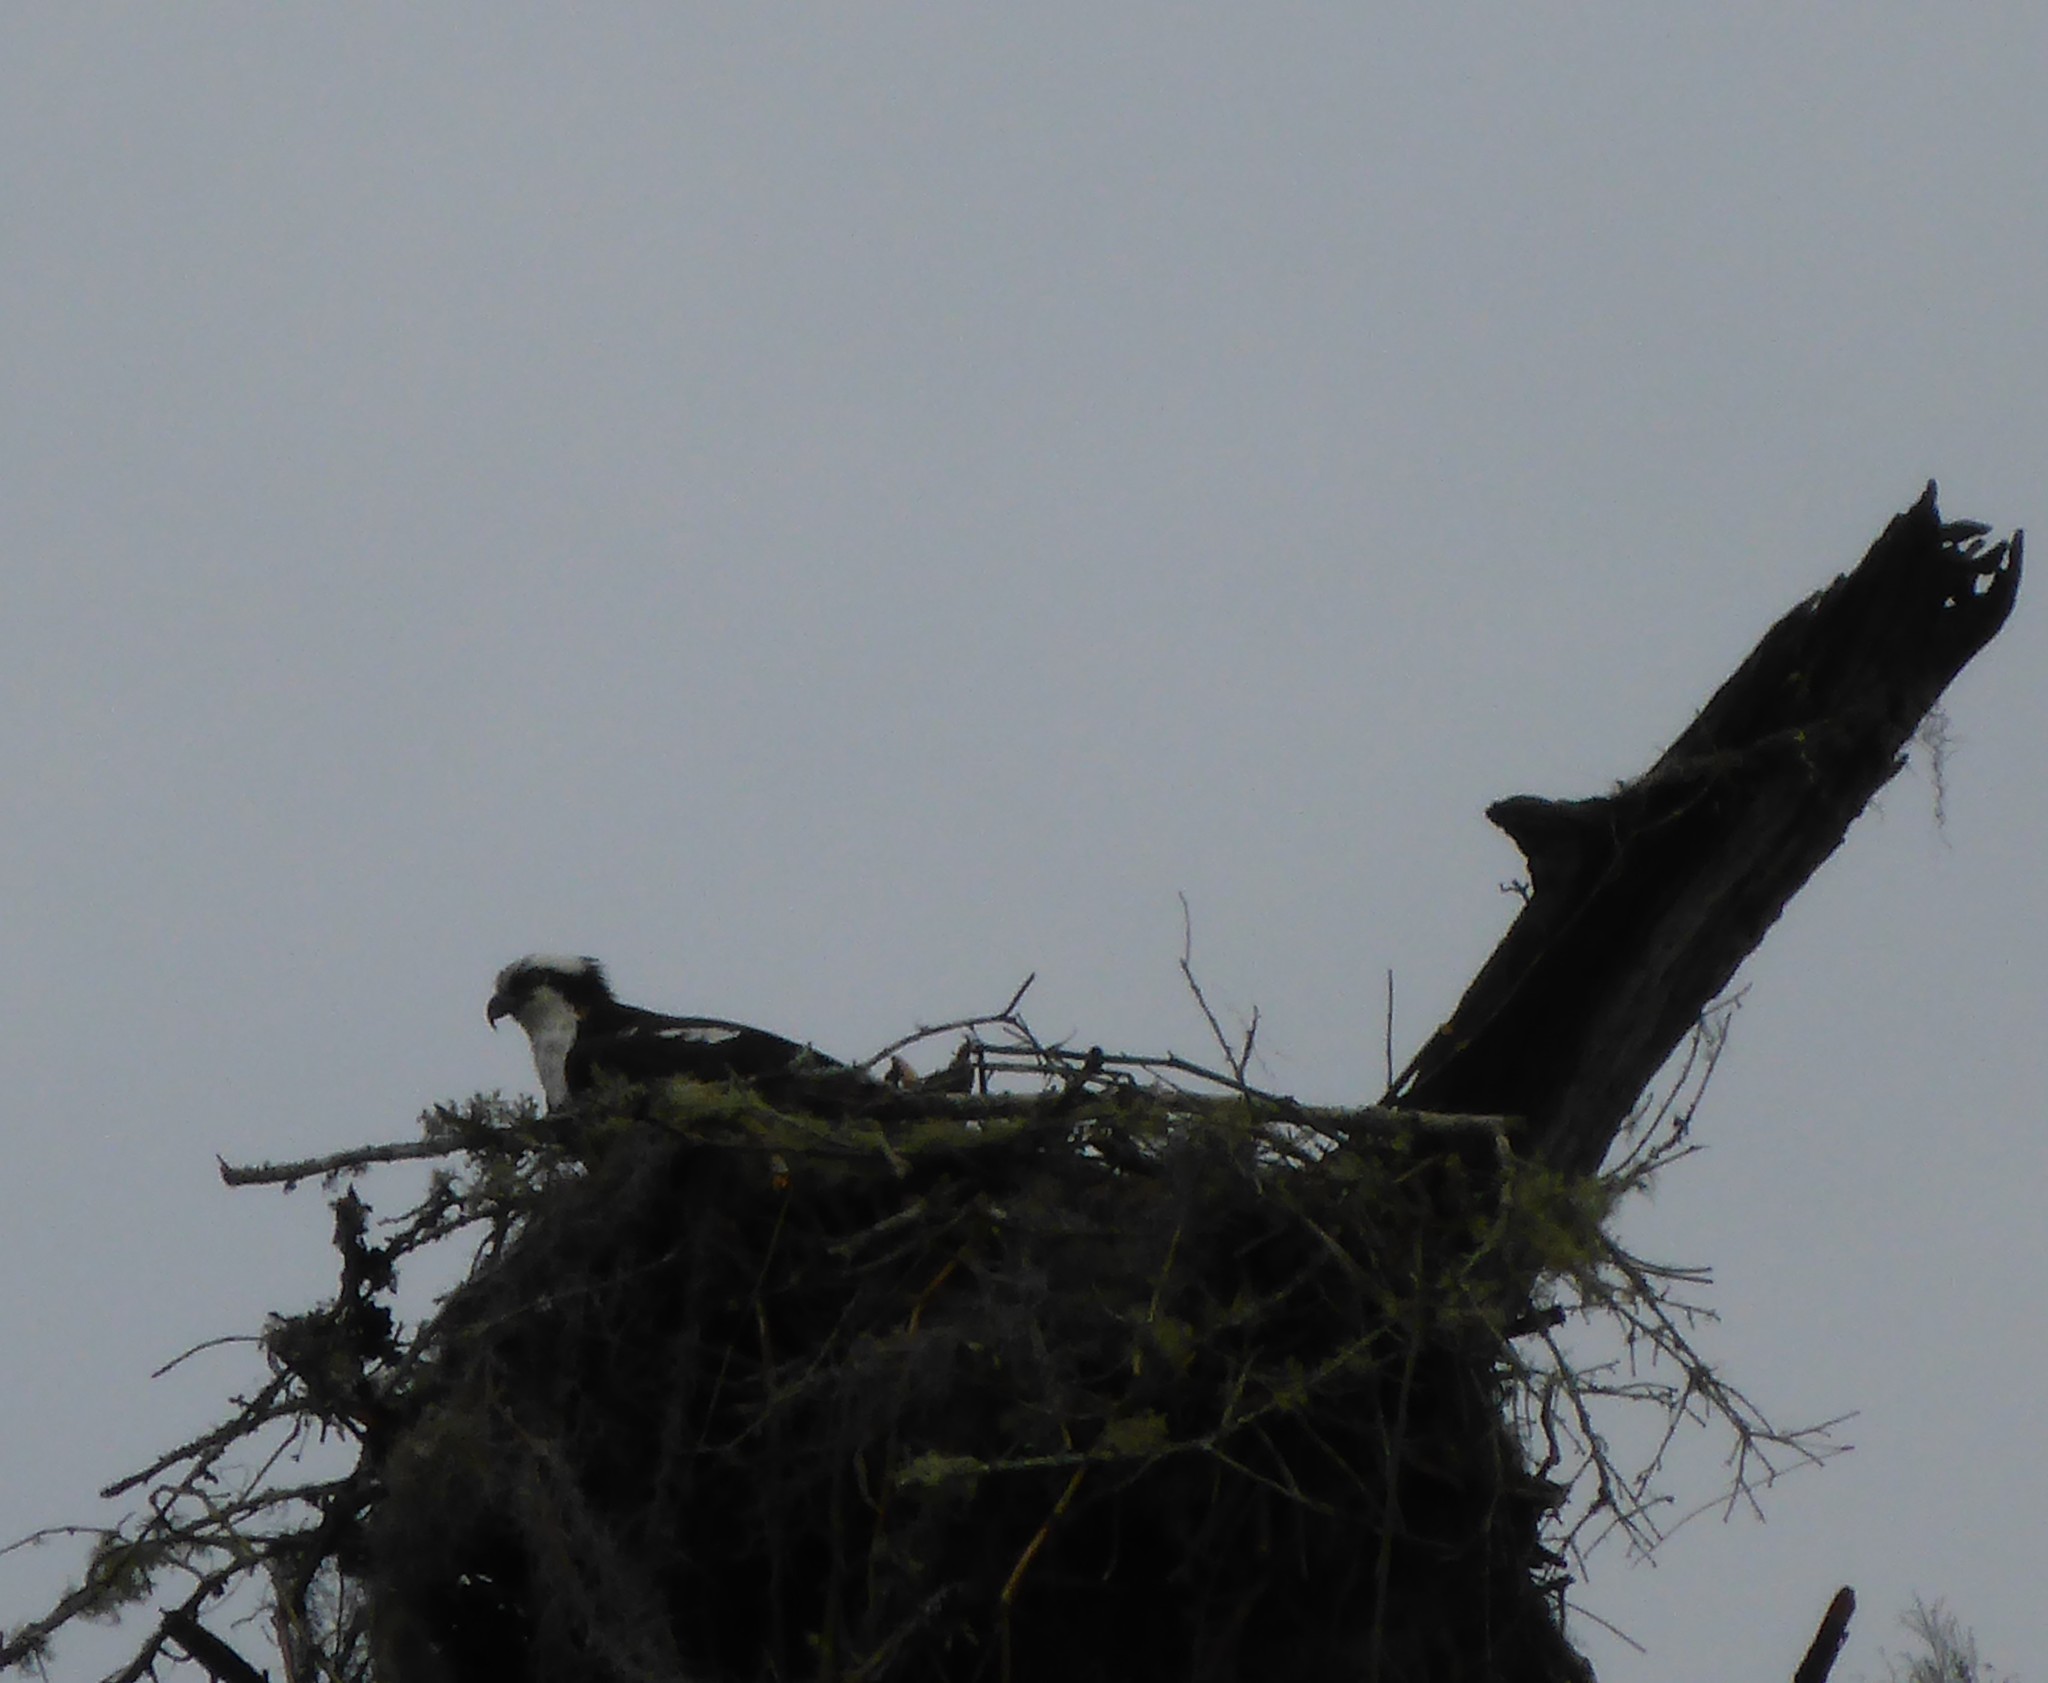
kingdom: Animalia
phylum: Chordata
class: Aves
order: Accipitriformes
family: Pandionidae
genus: Pandion
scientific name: Pandion haliaetus
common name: Osprey
